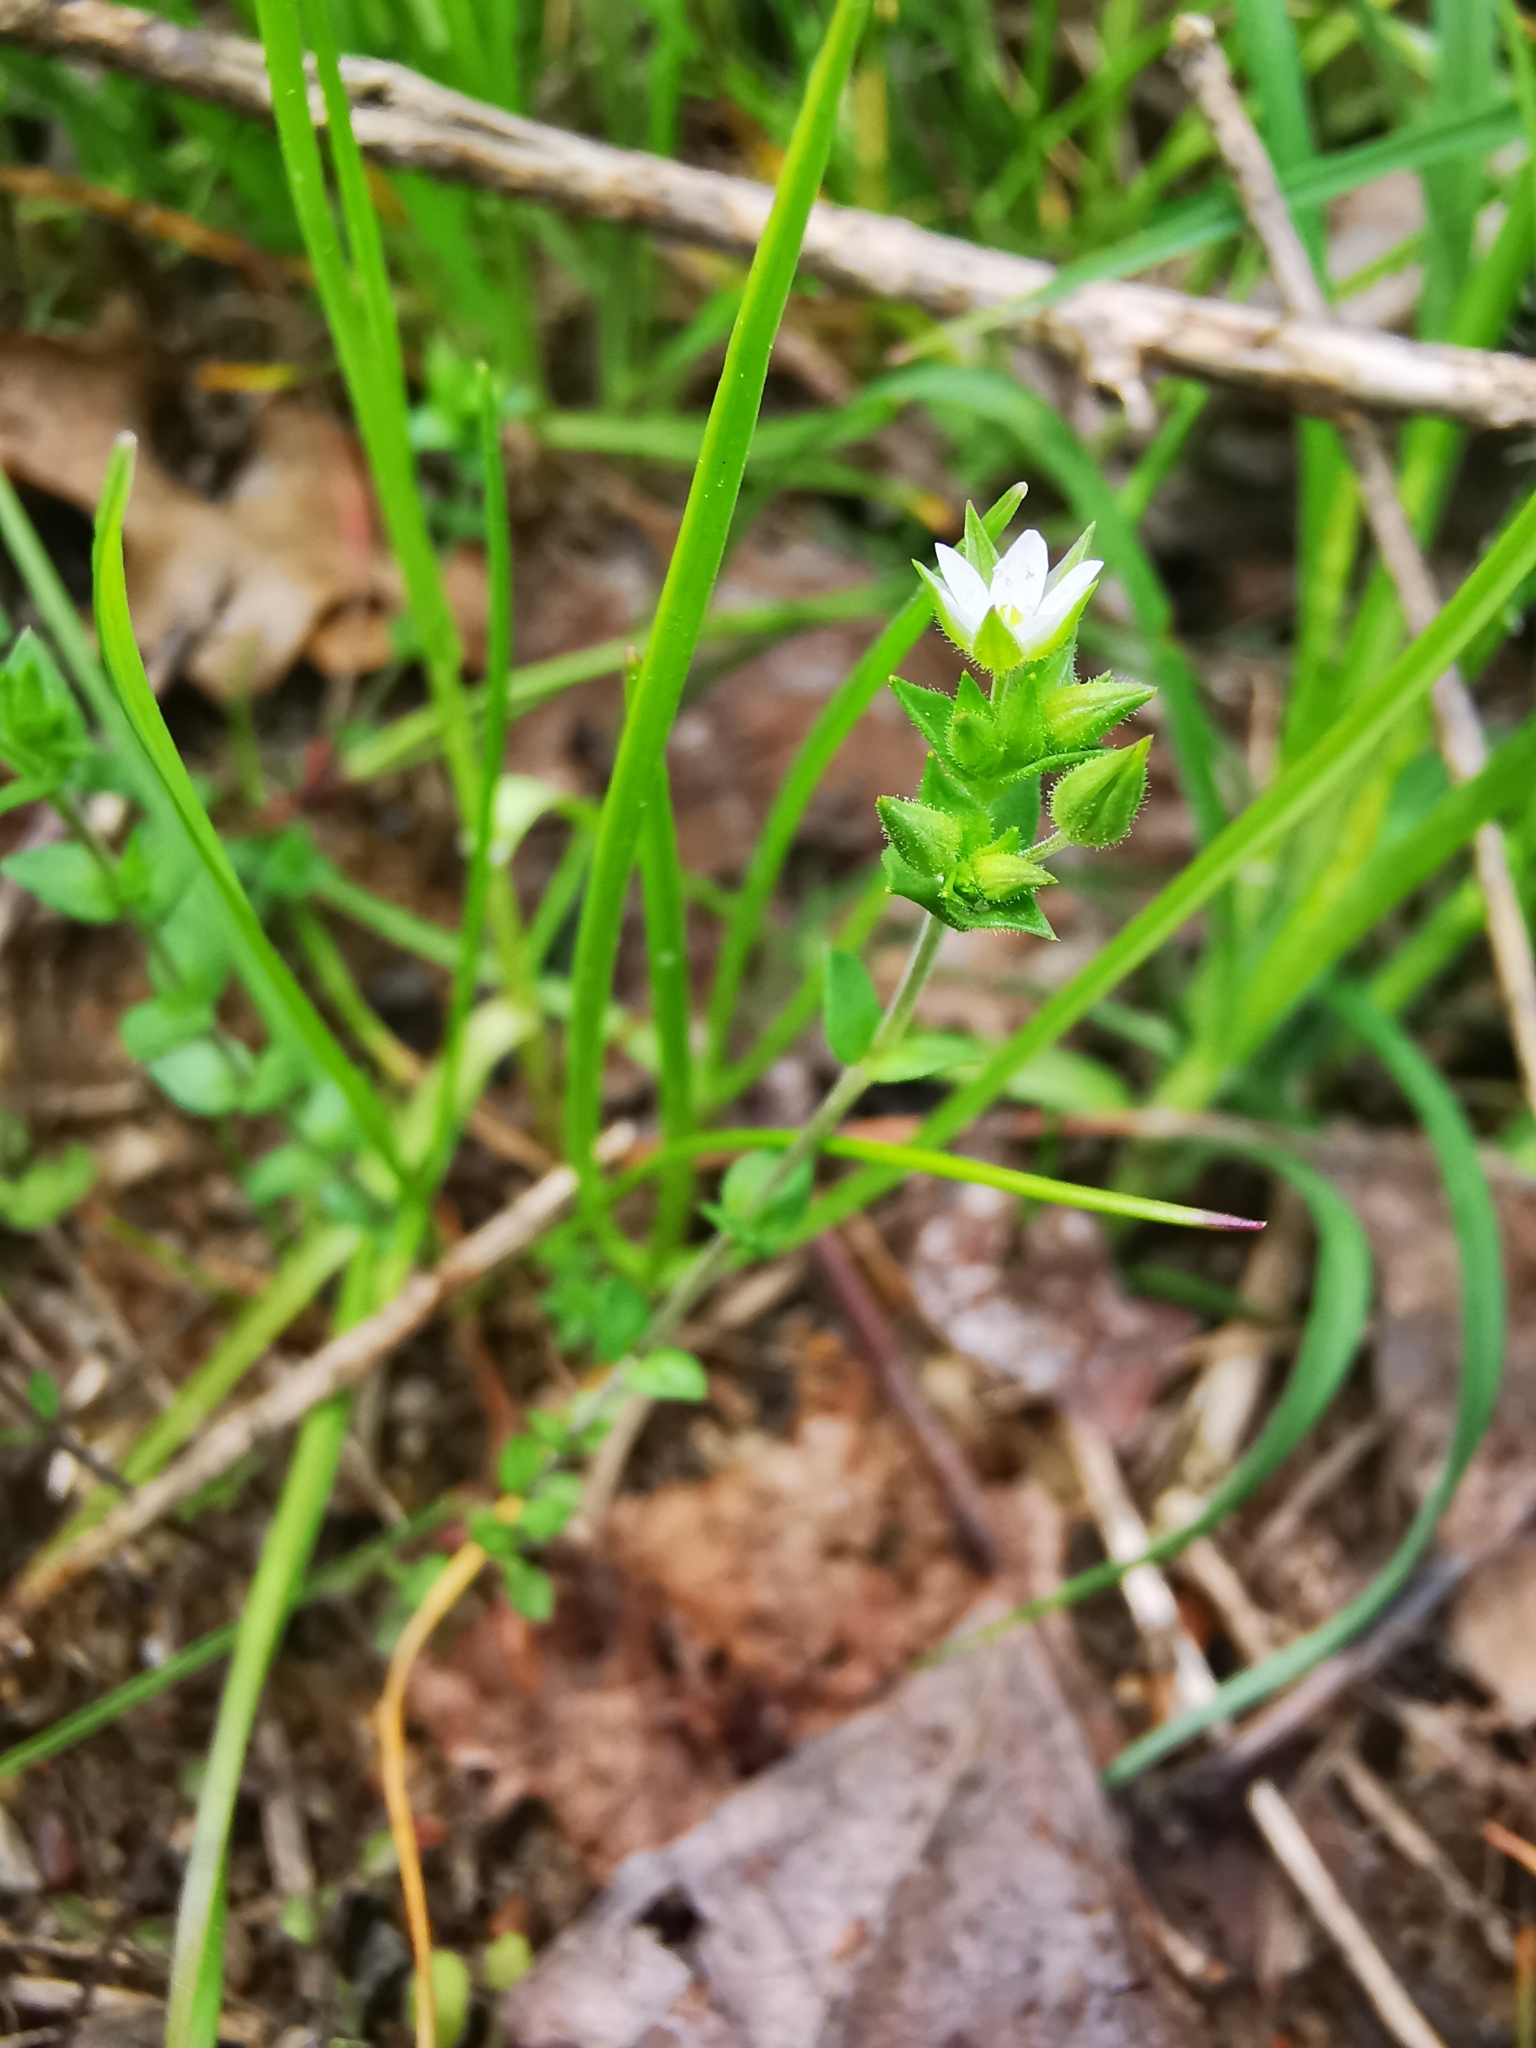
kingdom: Plantae
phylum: Tracheophyta
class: Magnoliopsida
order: Caryophyllales
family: Caryophyllaceae
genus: Arenaria
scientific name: Arenaria serpyllifolia
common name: Thyme-leaved sandwort
